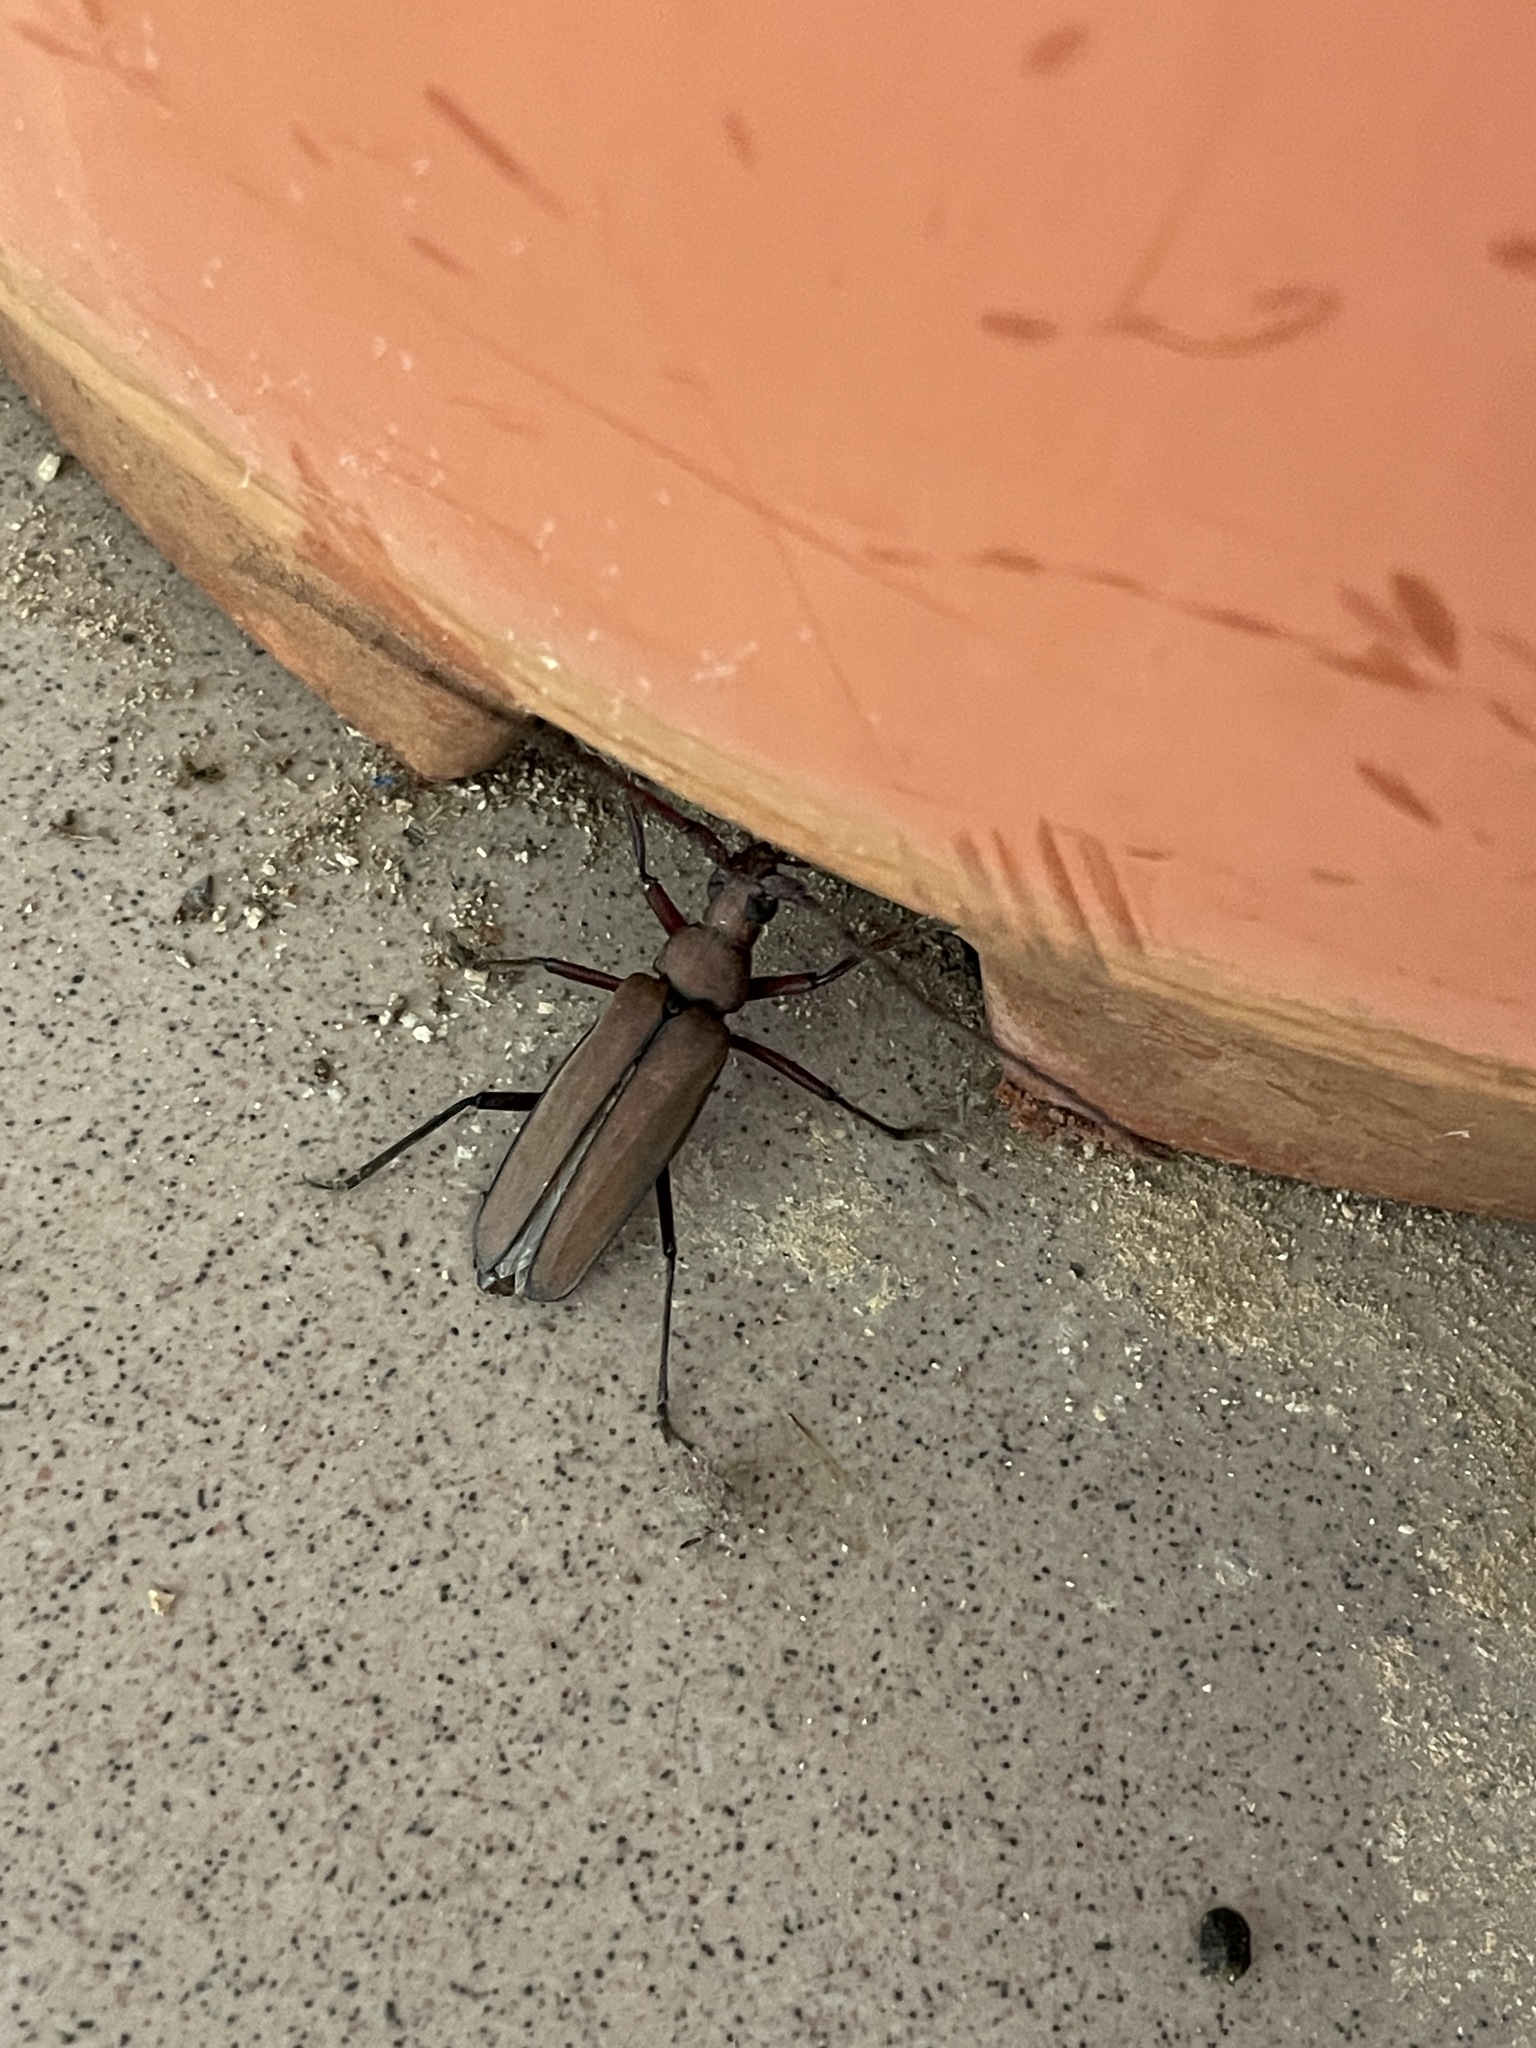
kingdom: Animalia
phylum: Arthropoda
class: Insecta
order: Coleoptera
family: Cerambycidae
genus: Aegolipton
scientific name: Aegolipton marginale
